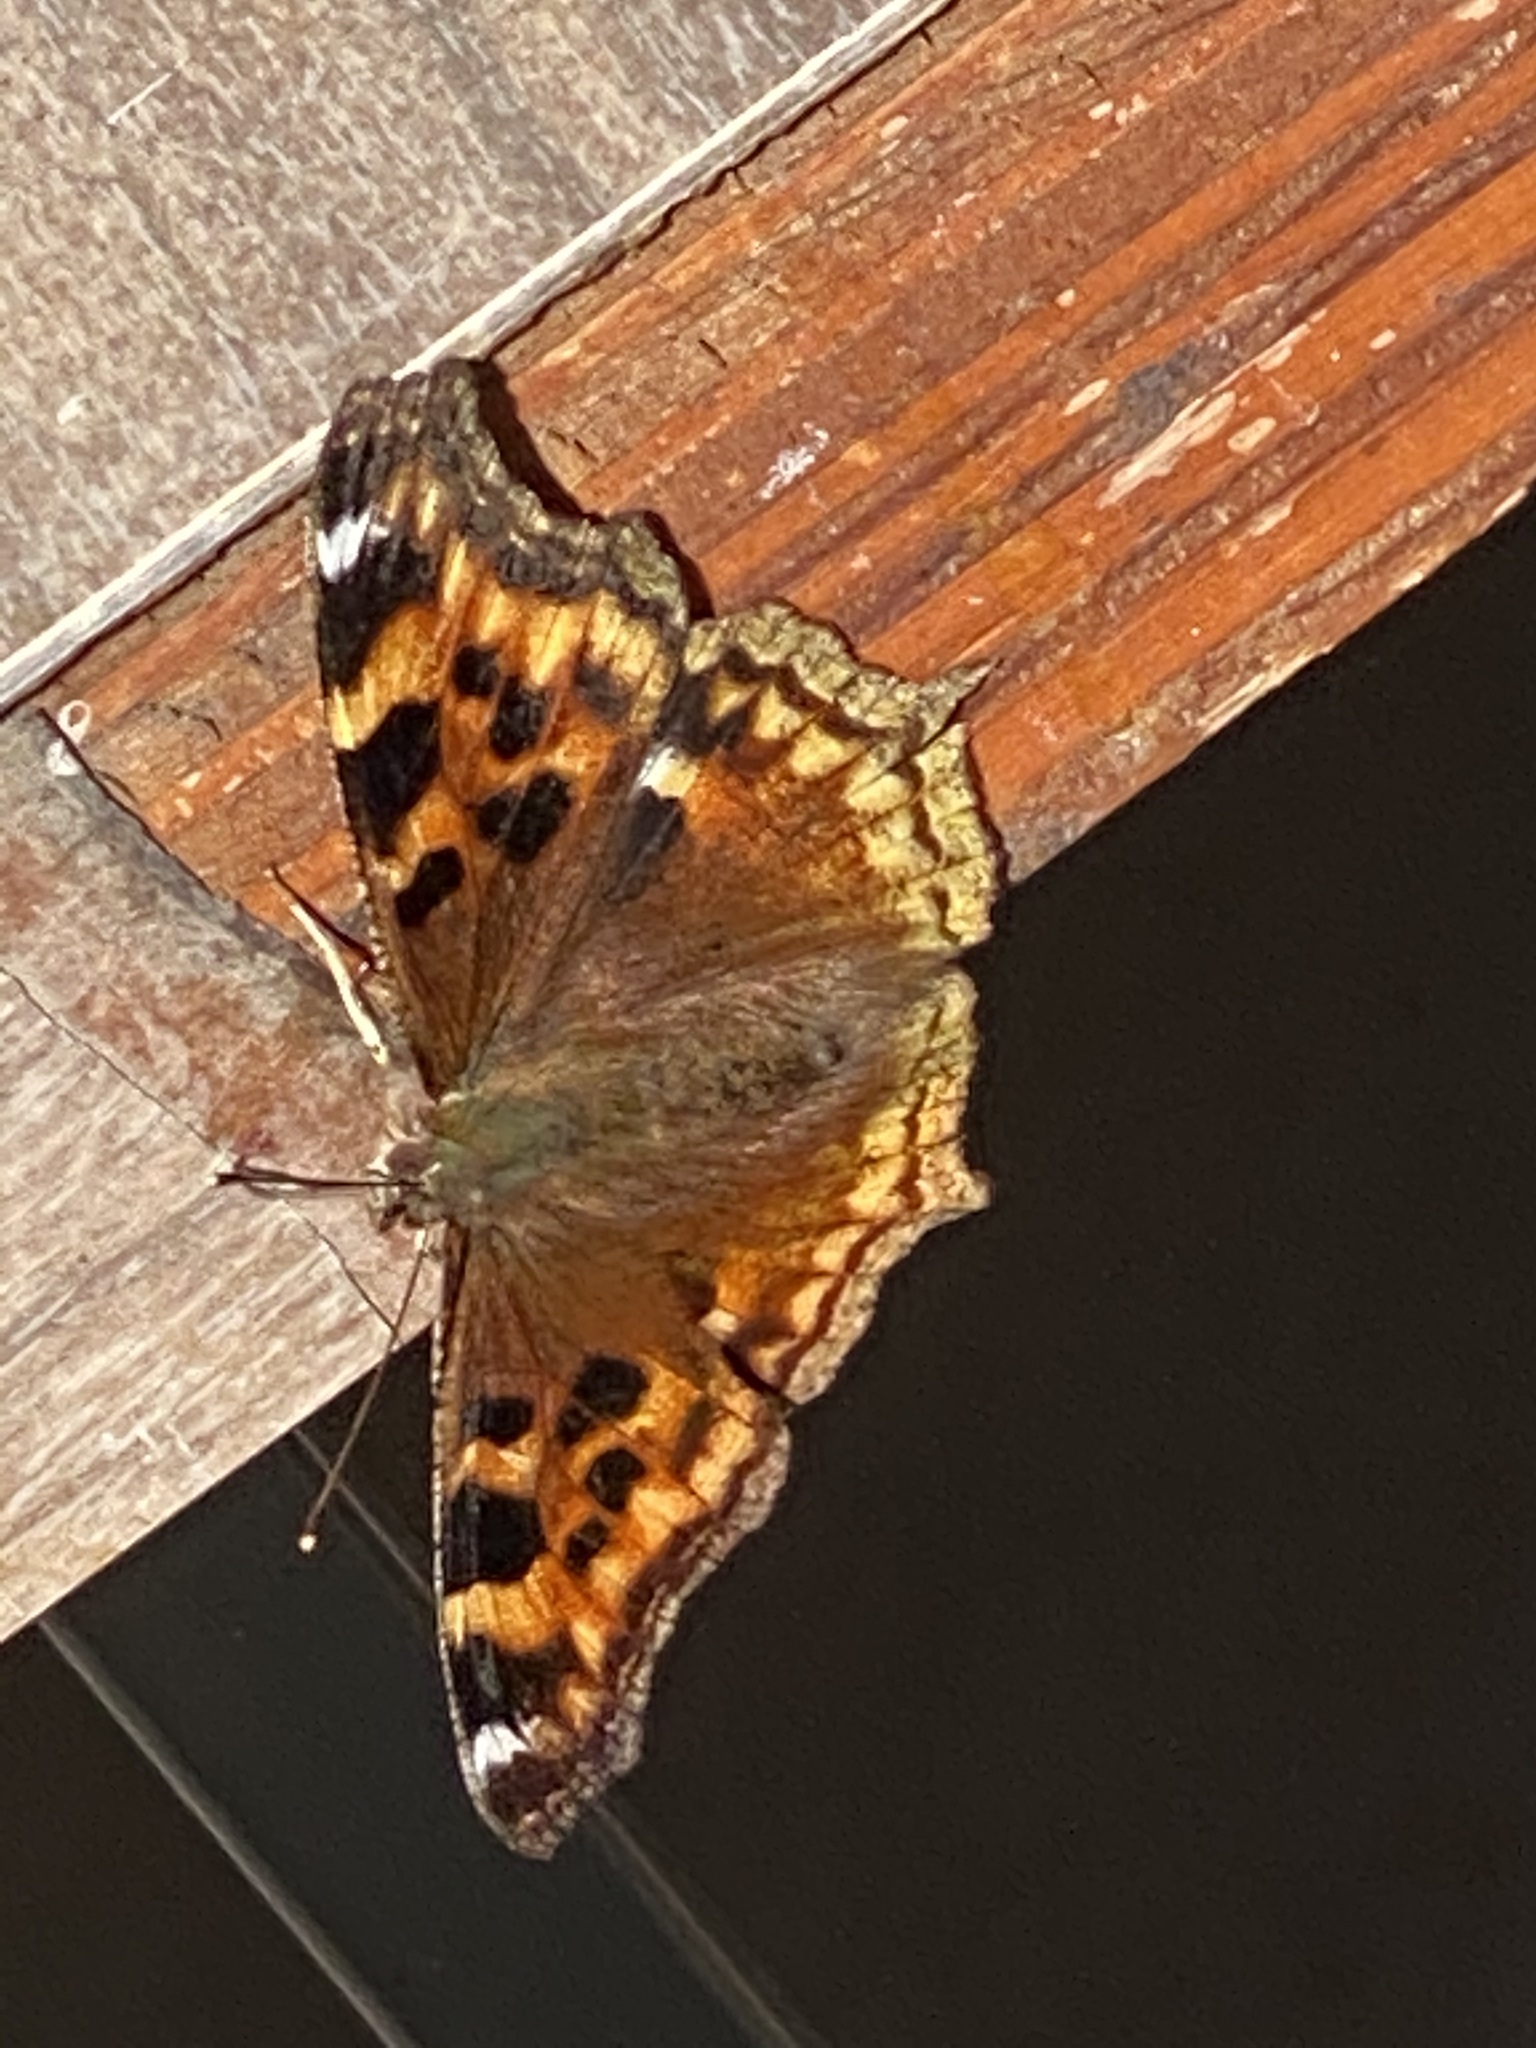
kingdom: Animalia
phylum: Arthropoda
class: Insecta
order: Lepidoptera
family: Nymphalidae
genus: Polygonia
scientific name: Polygonia vaualbum
